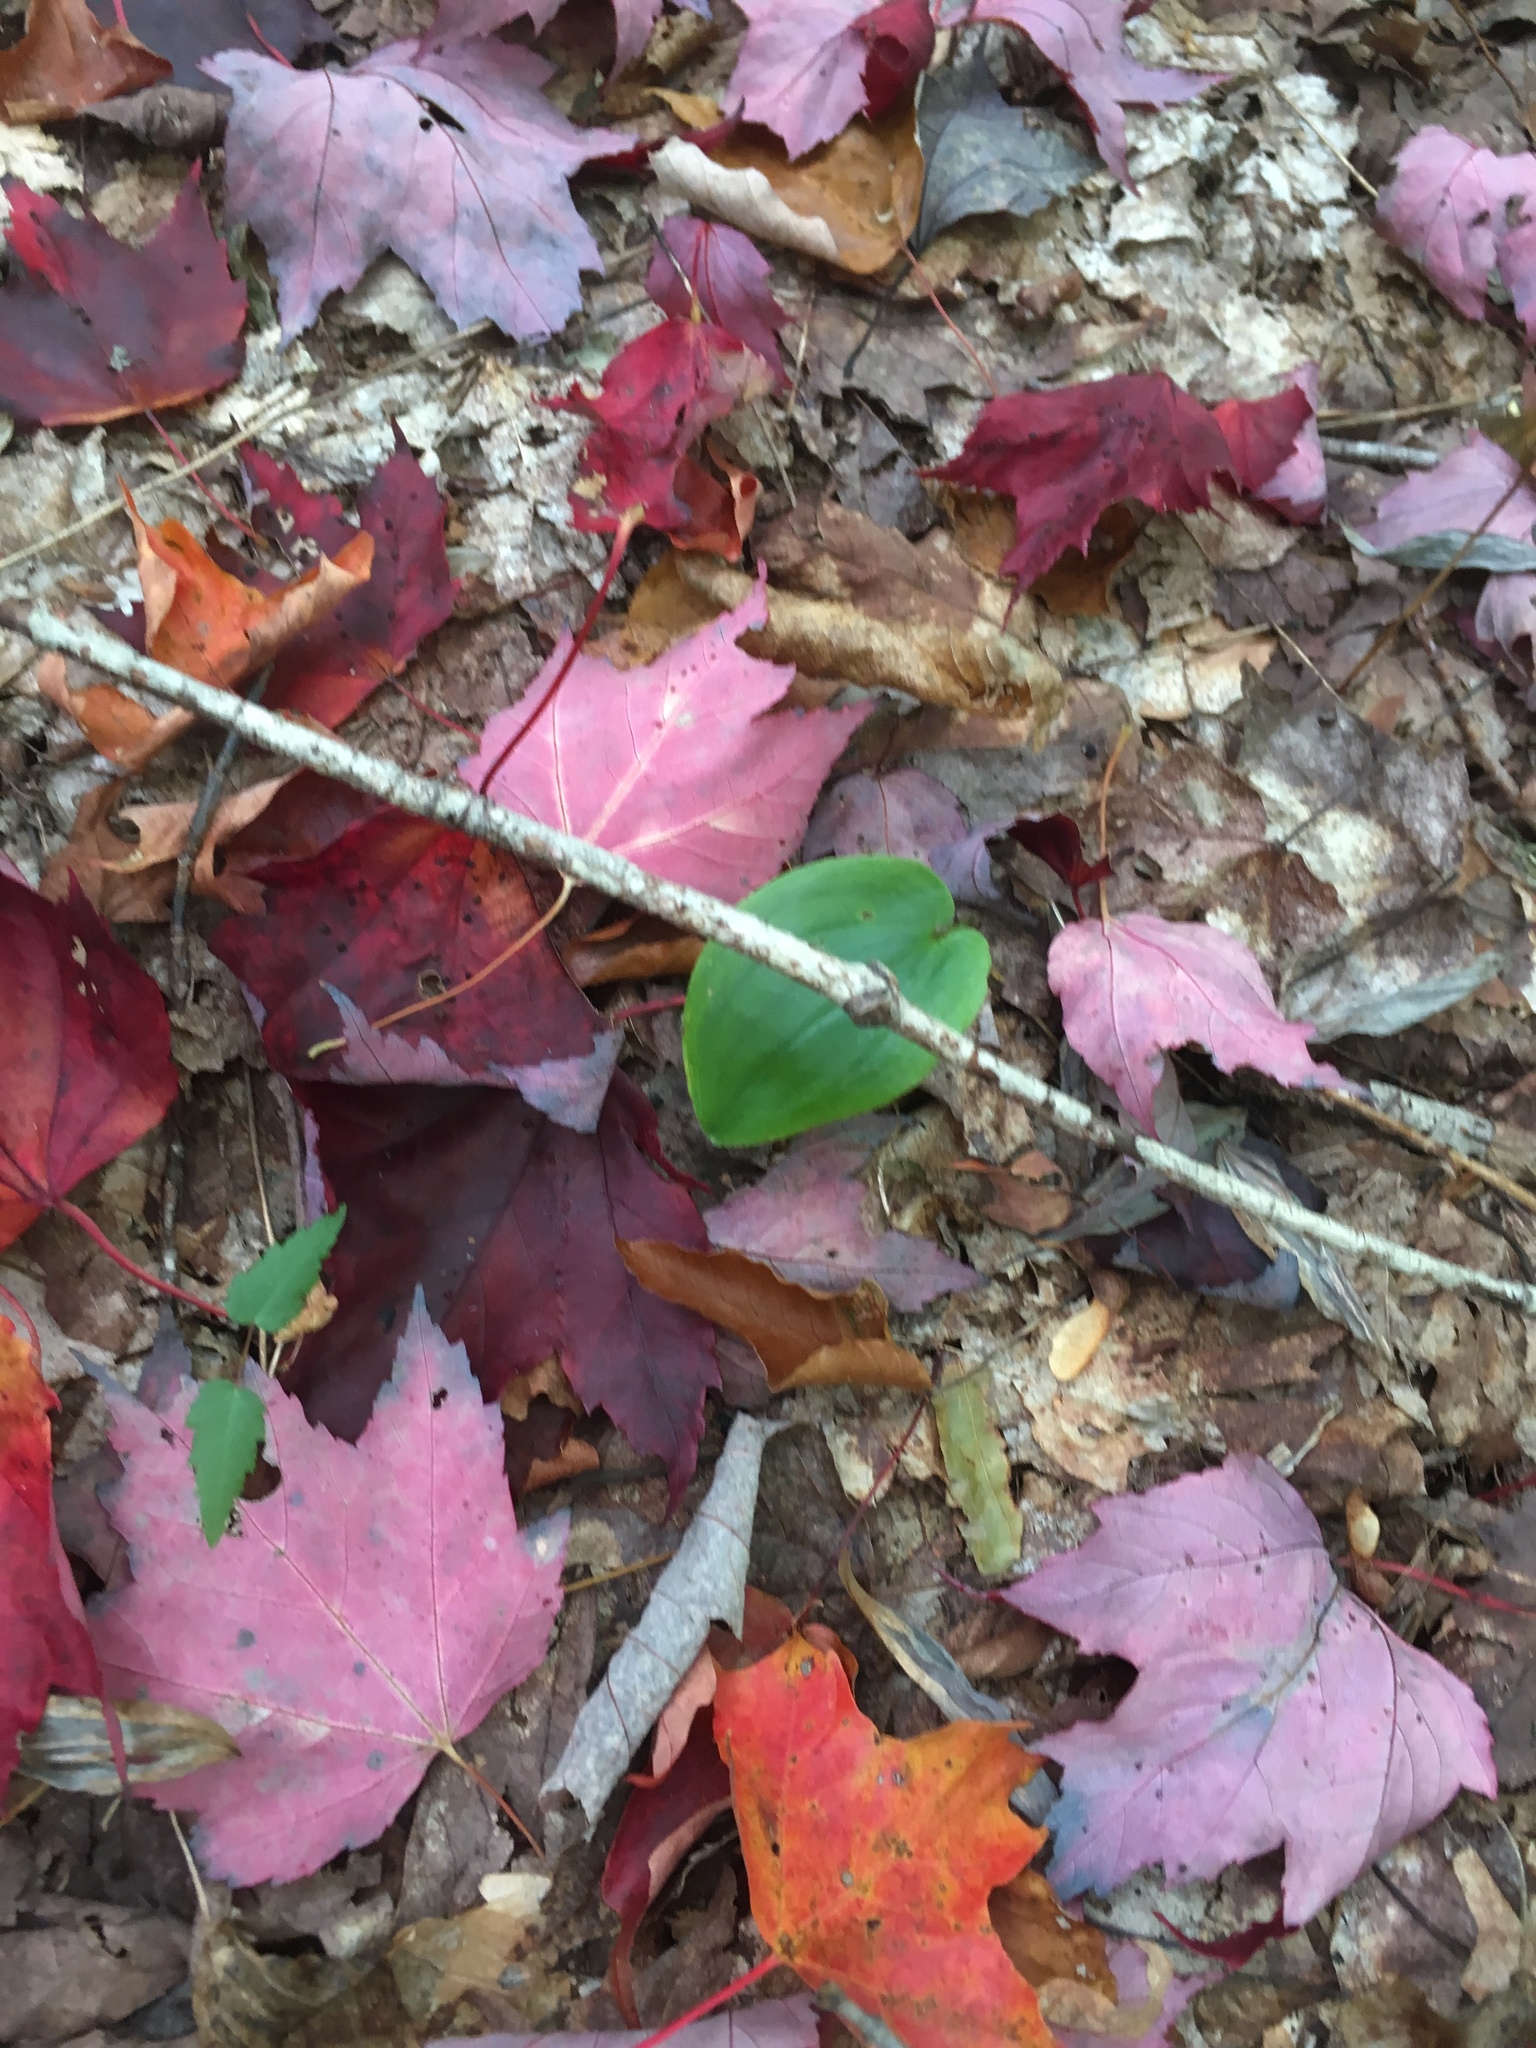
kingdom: Plantae
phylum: Tracheophyta
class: Liliopsida
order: Asparagales
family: Asparagaceae
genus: Maianthemum
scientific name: Maianthemum canadense
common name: False lily-of-the-valley
